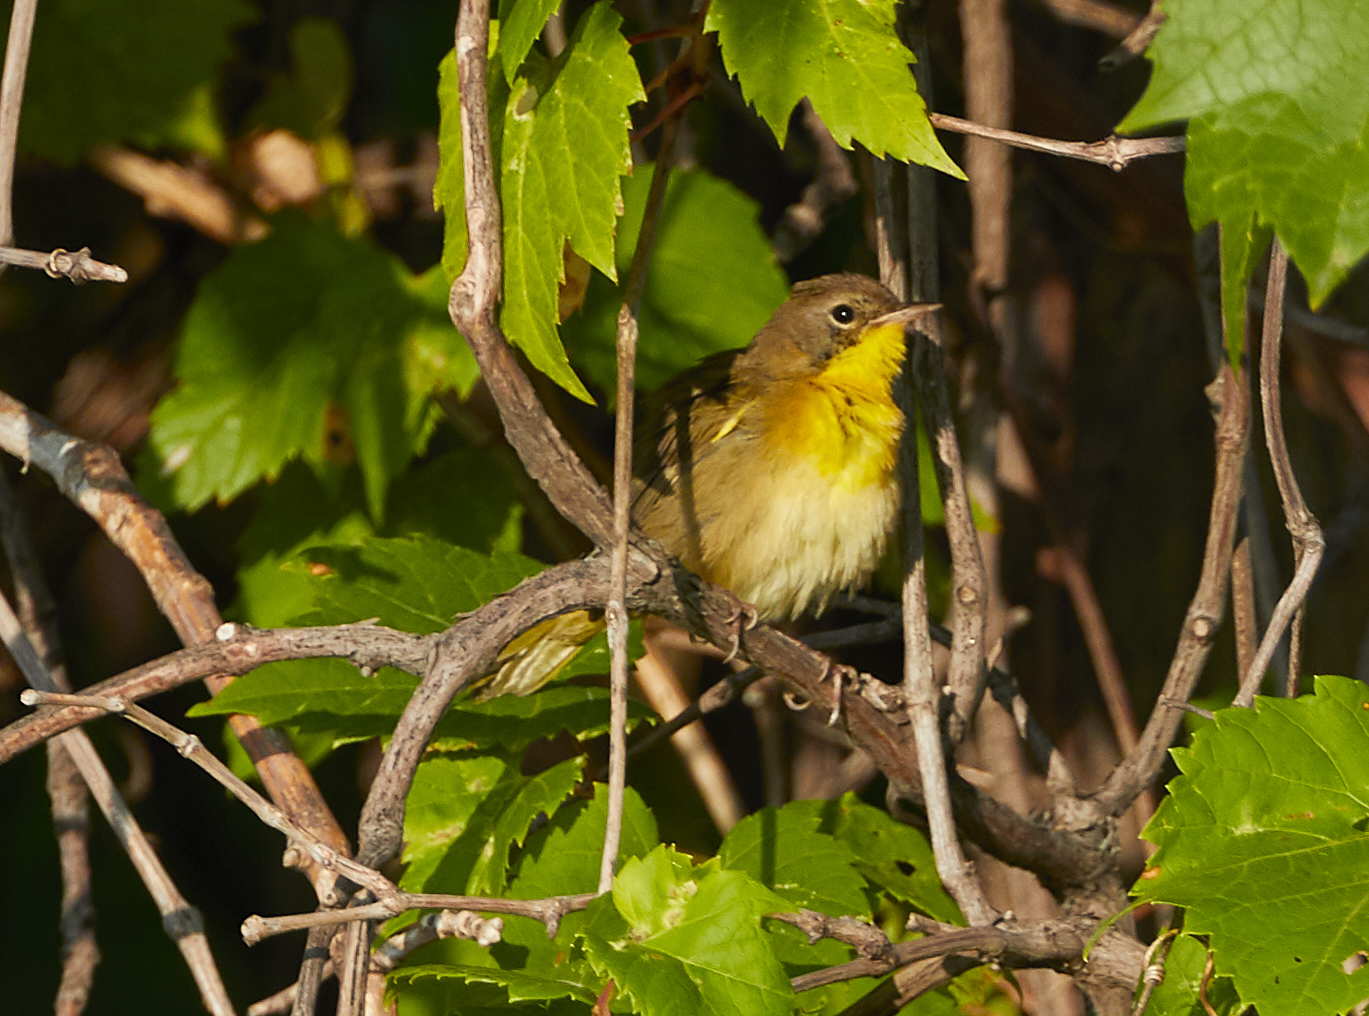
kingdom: Animalia
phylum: Chordata
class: Aves
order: Passeriformes
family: Parulidae
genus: Geothlypis
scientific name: Geothlypis trichas
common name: Common yellowthroat
